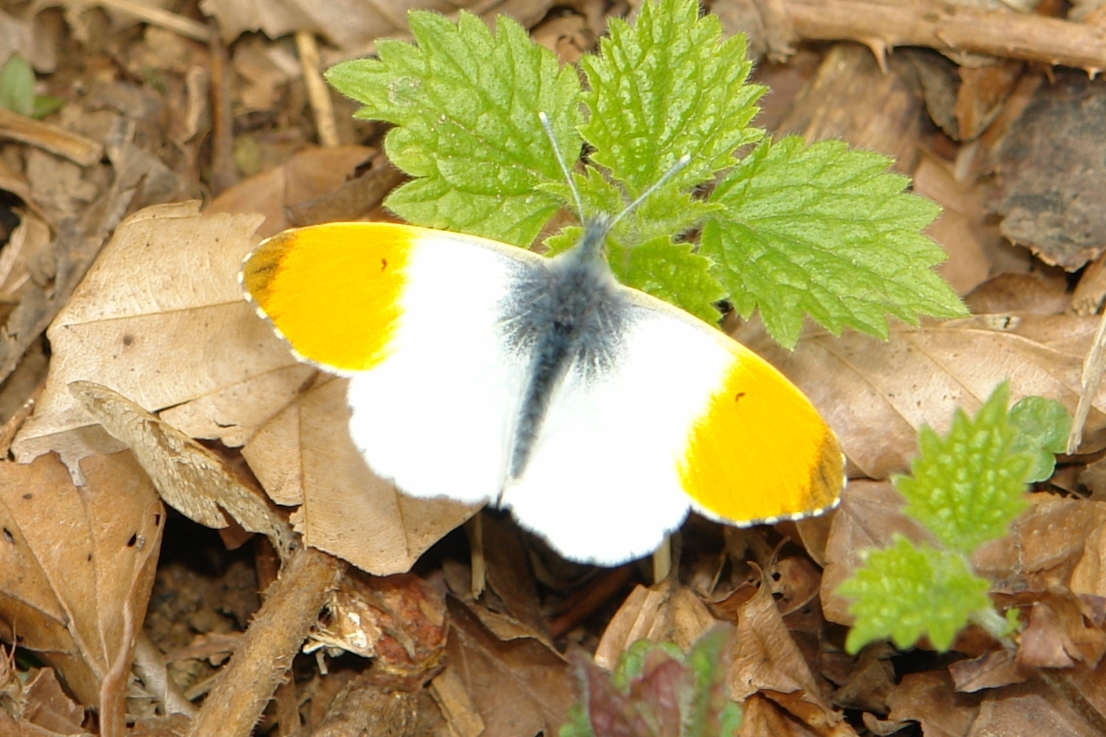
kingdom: Animalia
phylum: Arthropoda
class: Insecta
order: Lepidoptera
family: Pieridae
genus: Anthocharis
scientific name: Anthocharis cardamines
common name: Orange-tip
